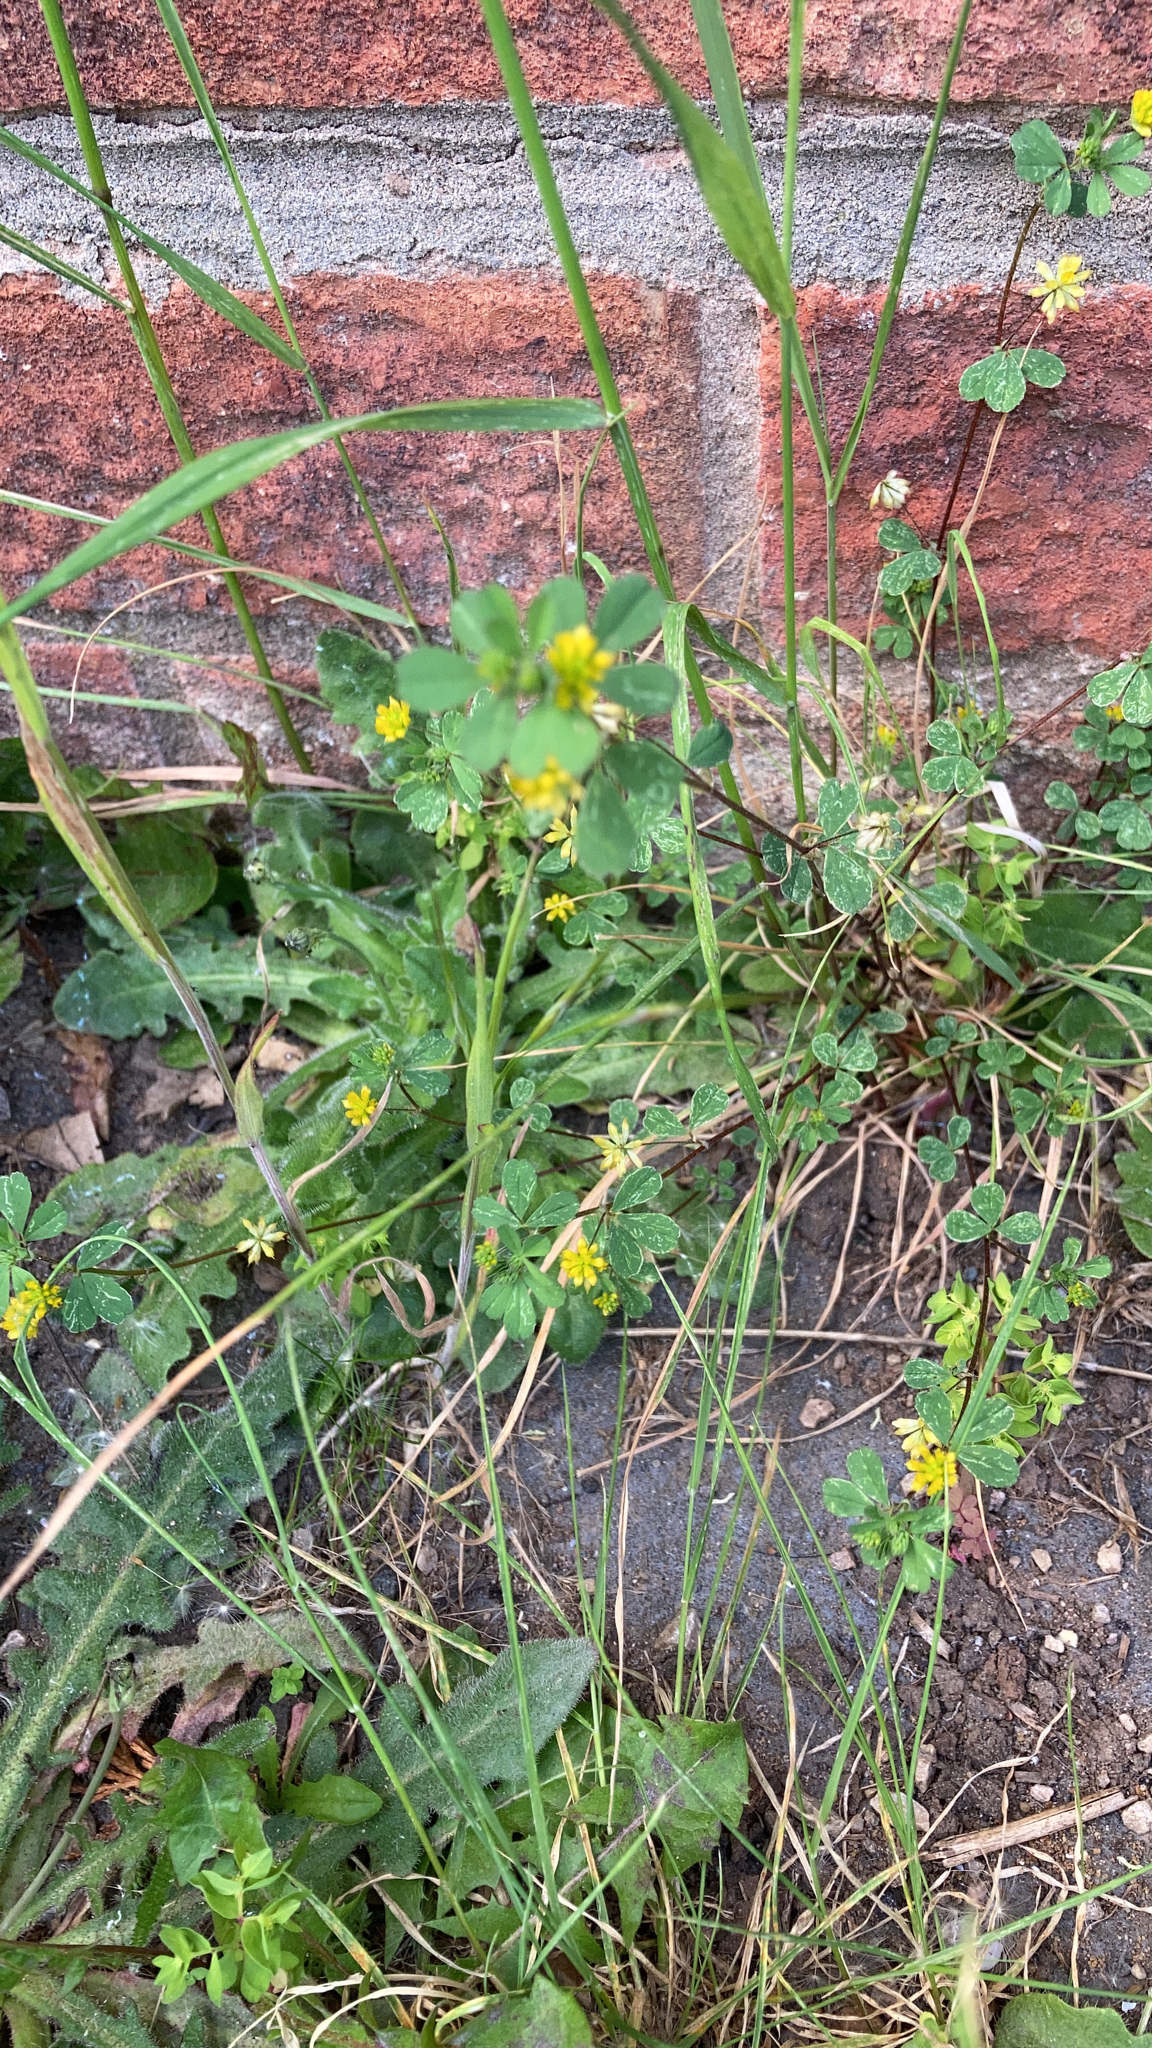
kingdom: Plantae
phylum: Tracheophyta
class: Magnoliopsida
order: Fabales
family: Fabaceae
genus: Trifolium
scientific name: Trifolium dubium
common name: Suckling clover
